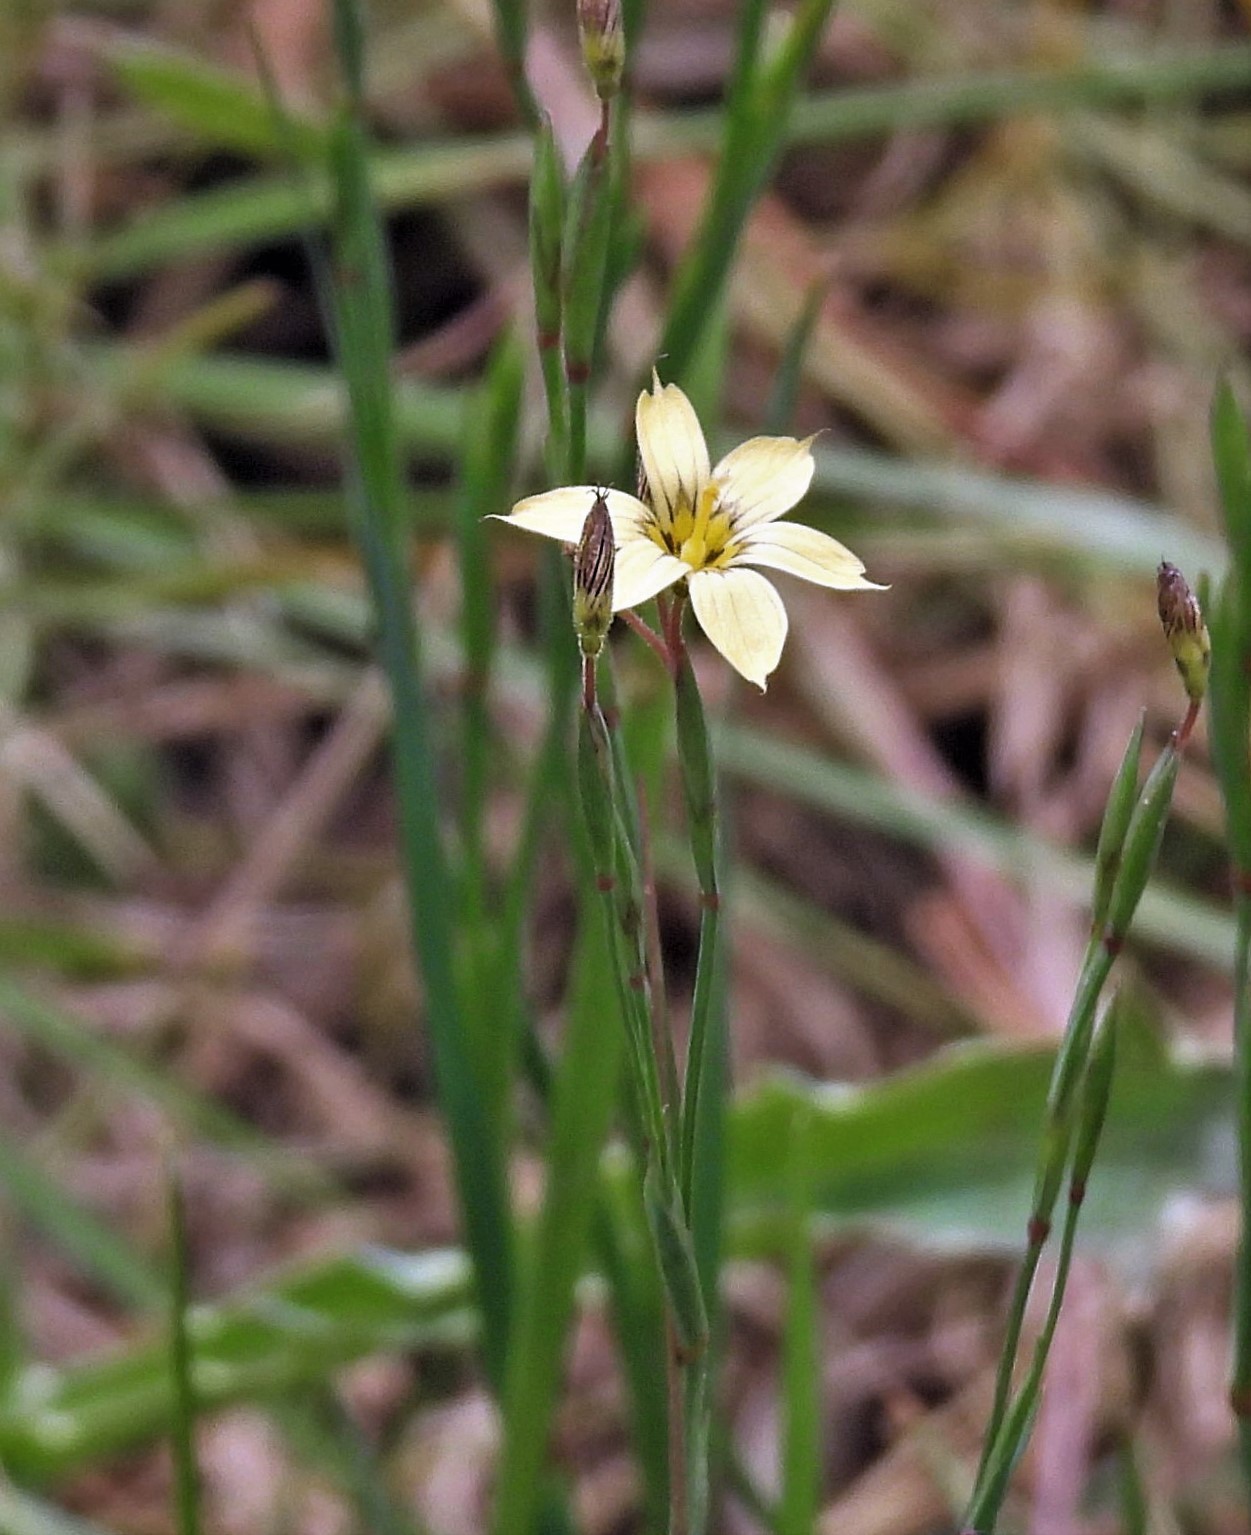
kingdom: Plantae
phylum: Tracheophyta
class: Liliopsida
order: Asparagales
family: Iridaceae
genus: Sisyrinchium
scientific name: Sisyrinchium pachyrhizum
